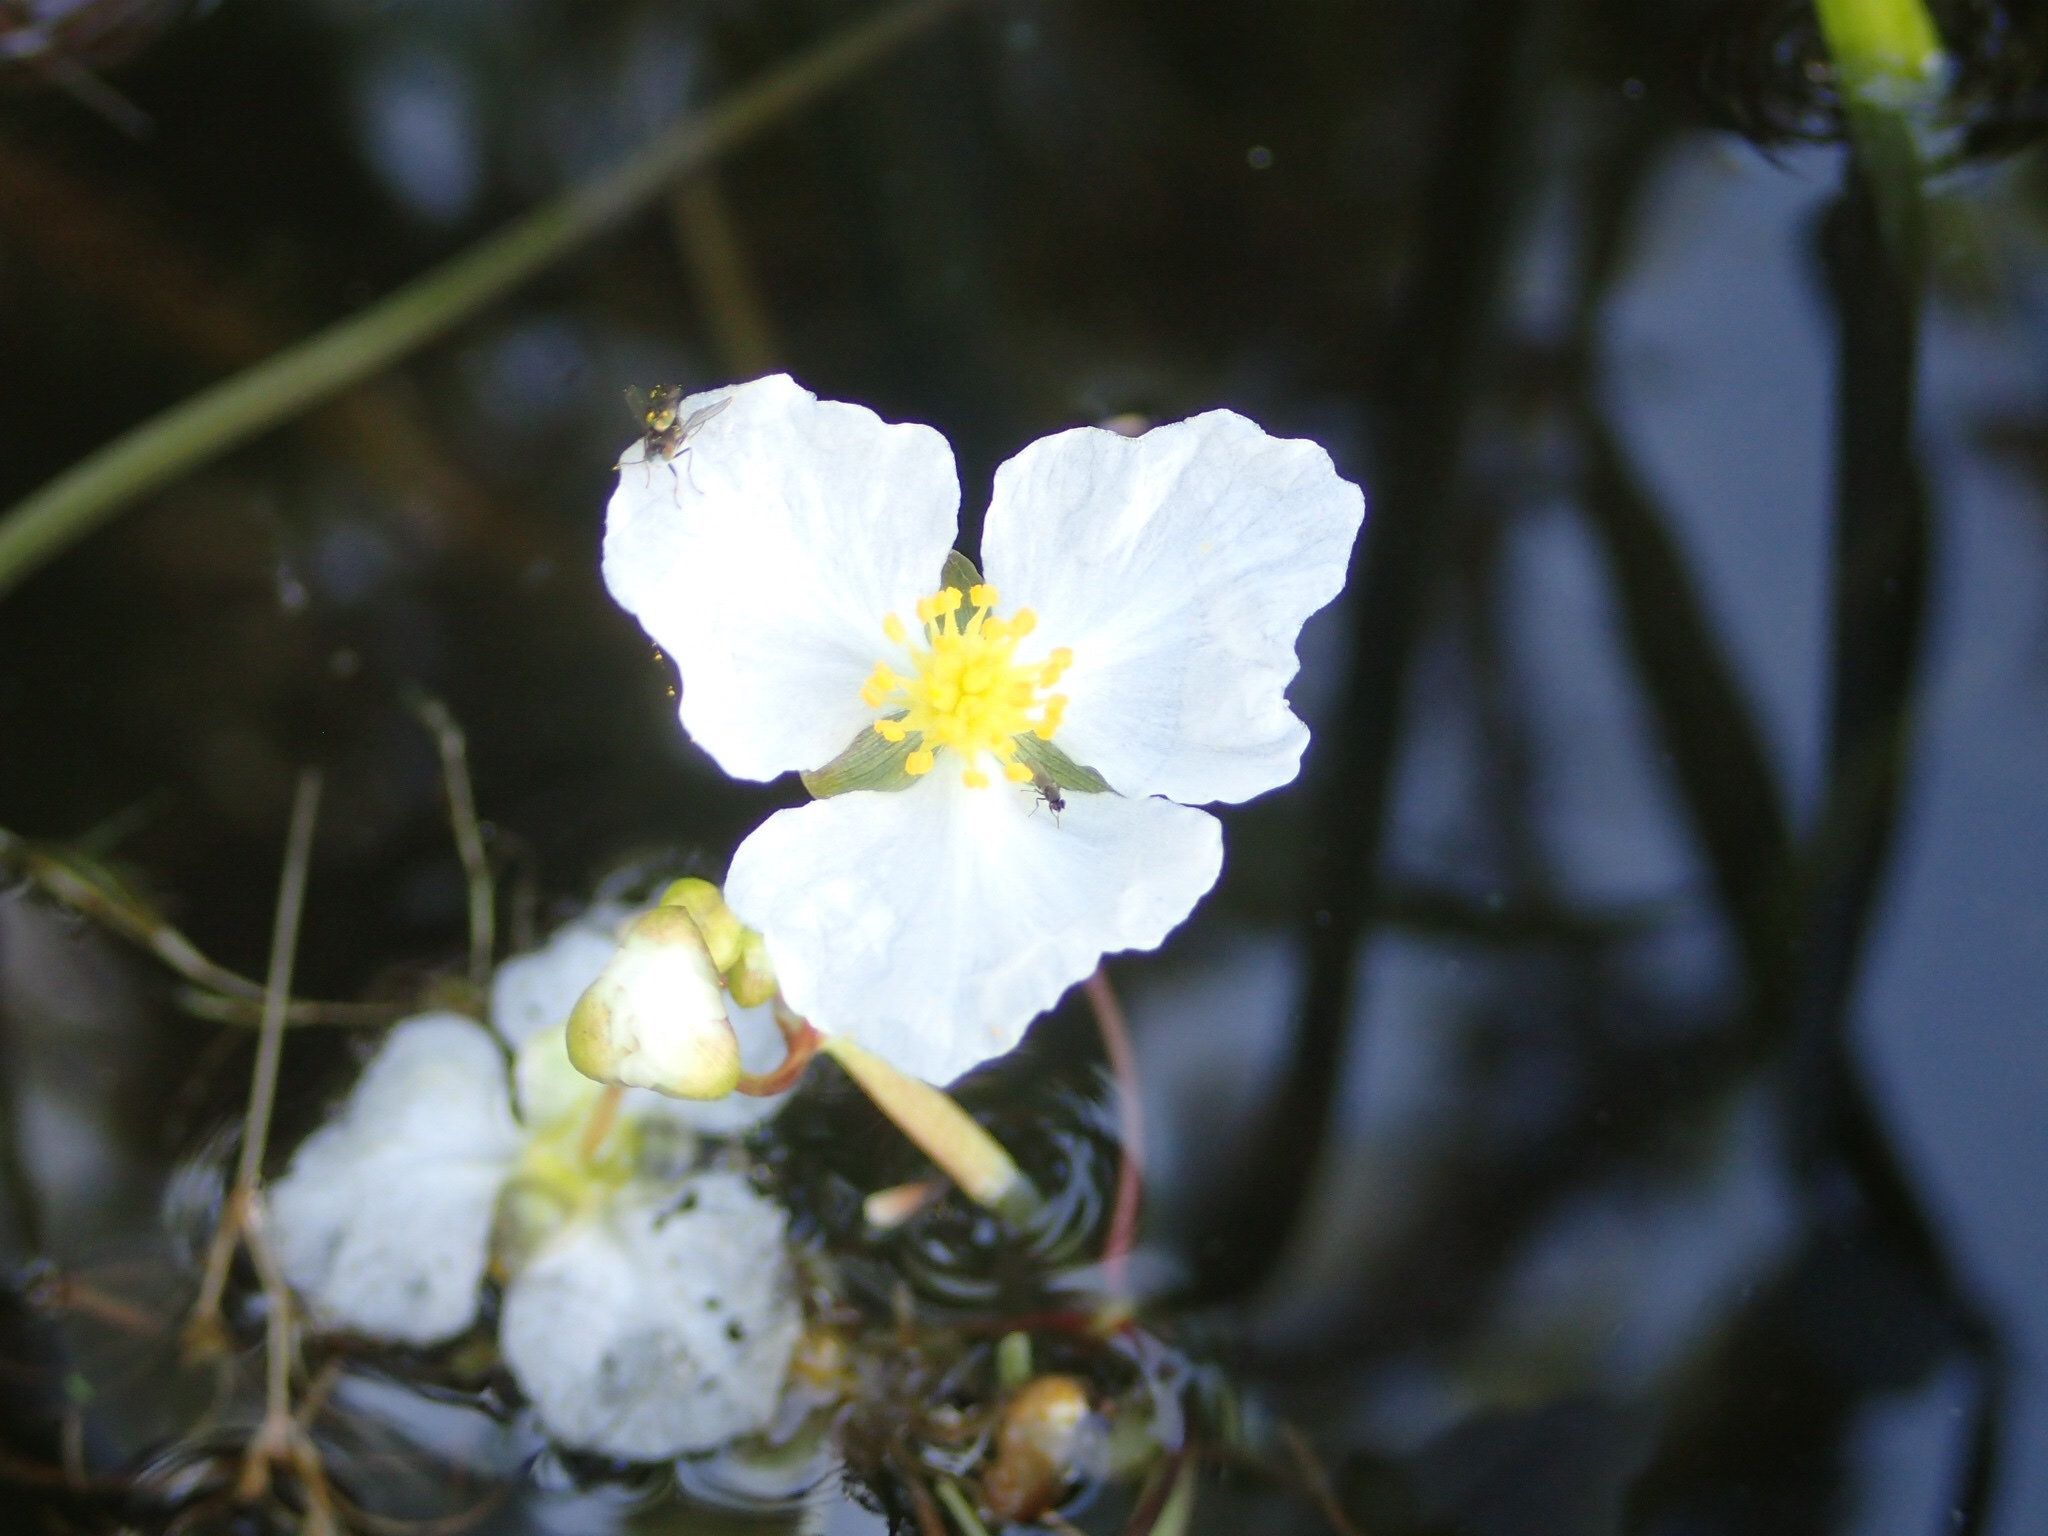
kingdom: Plantae
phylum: Tracheophyta
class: Liliopsida
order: Alismatales
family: Alismataceae
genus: Sagittaria
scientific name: Sagittaria cristata
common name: Crested arrowhead
